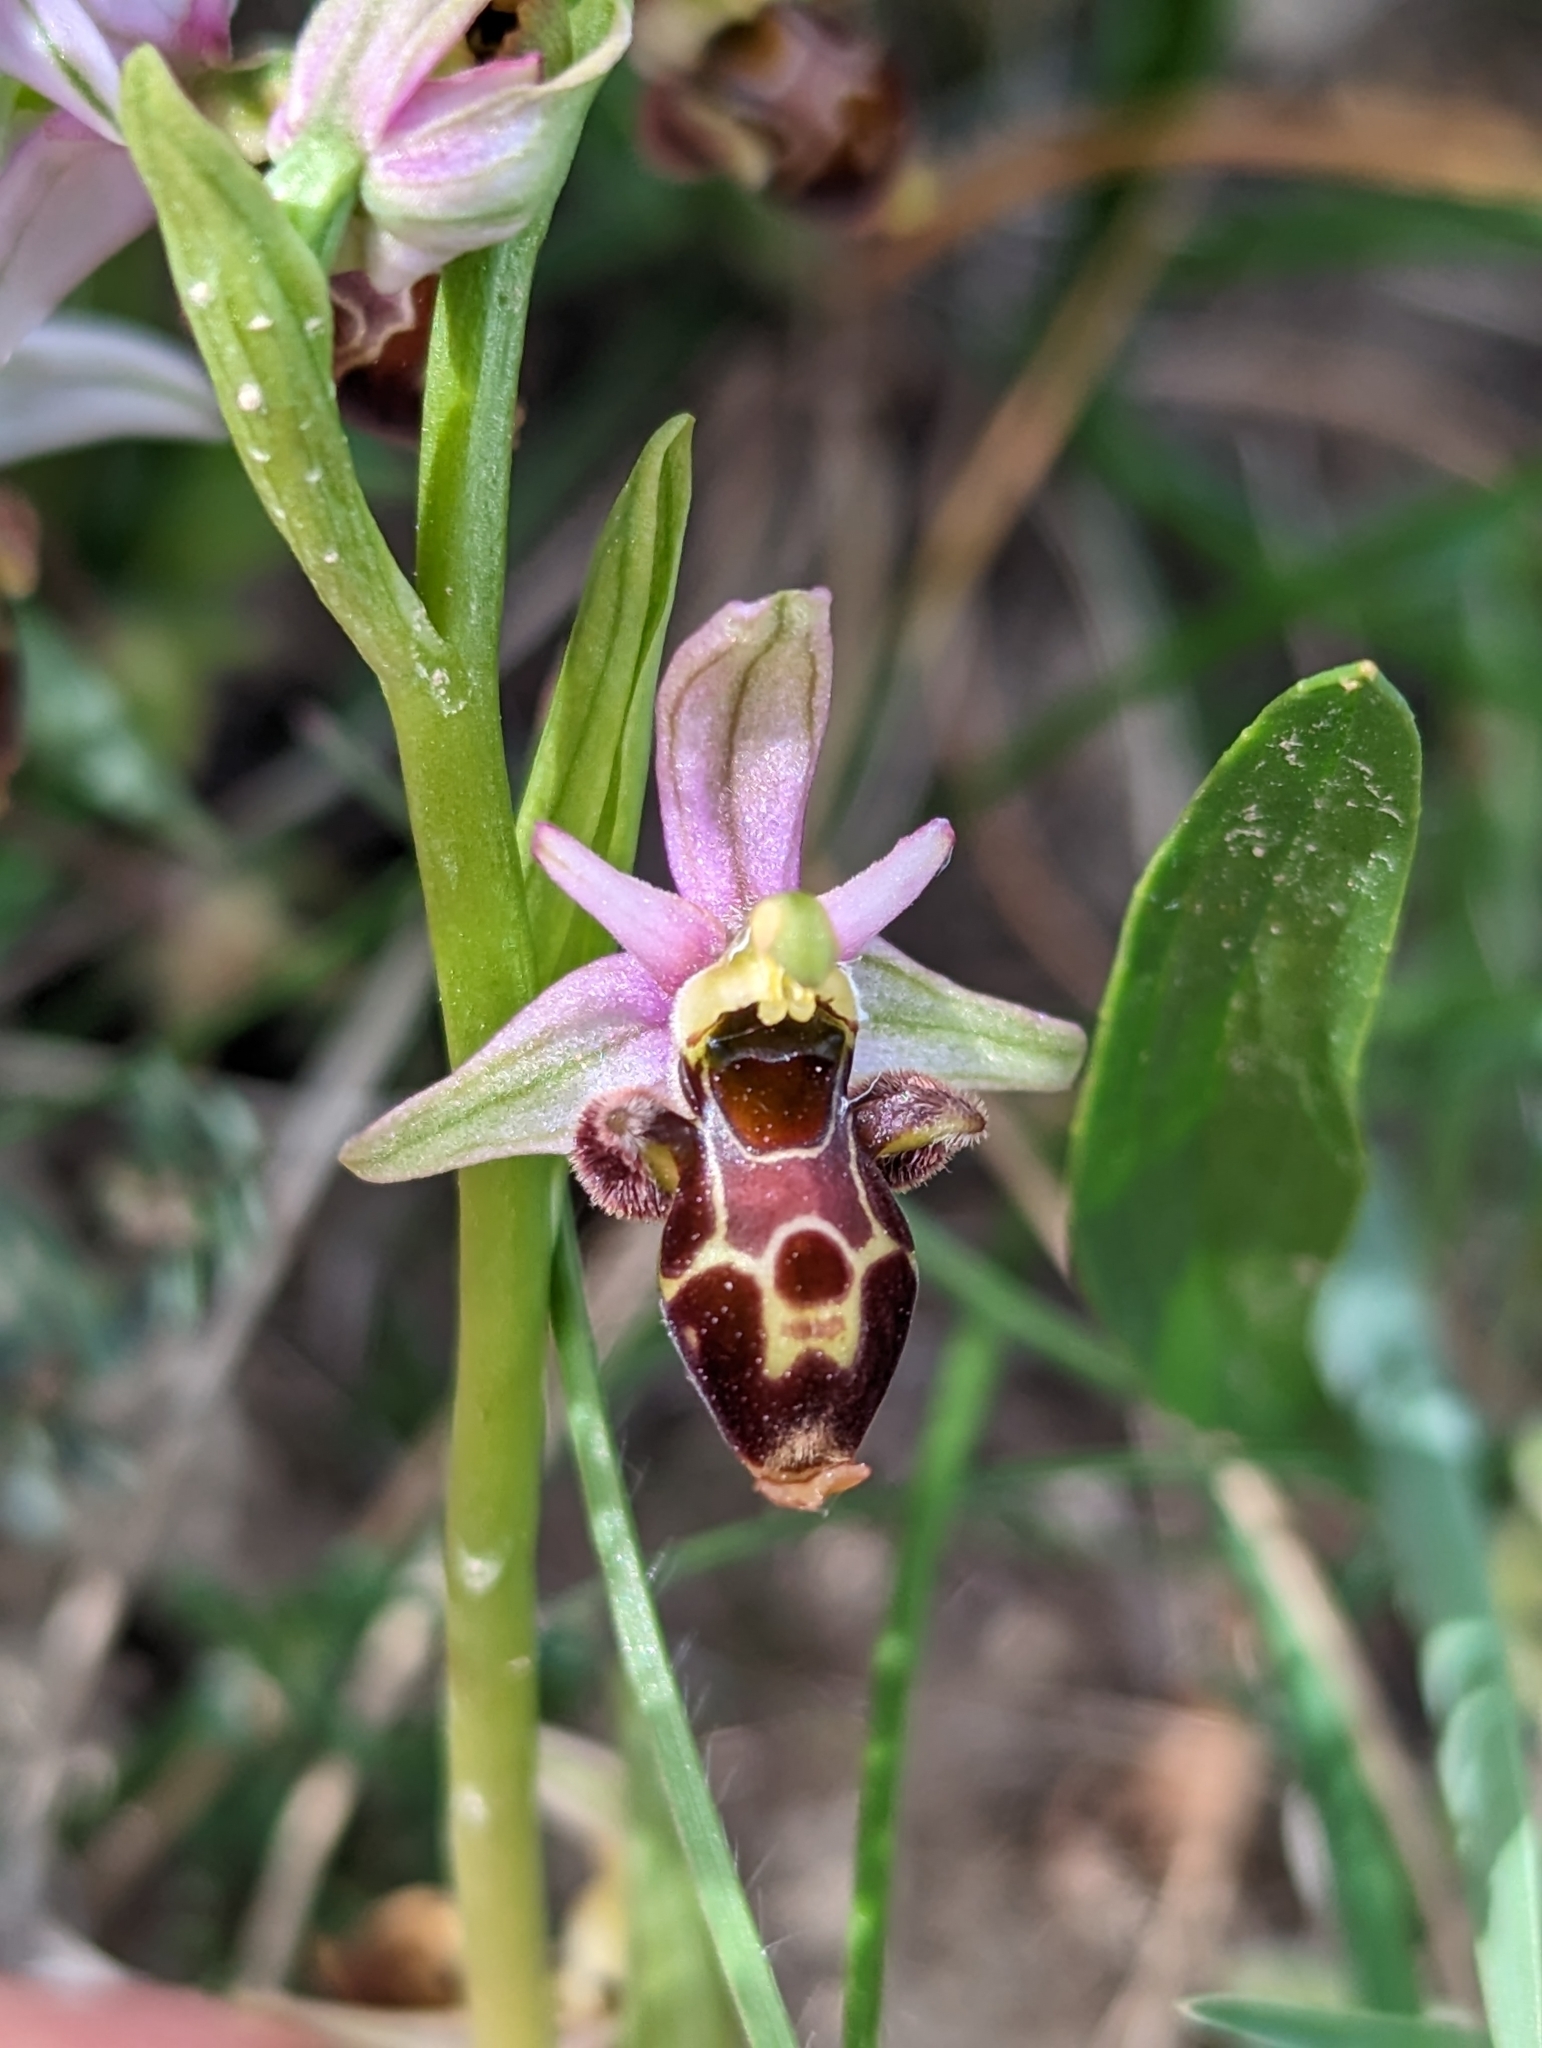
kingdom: Plantae
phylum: Tracheophyta
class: Liliopsida
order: Asparagales
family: Orchidaceae
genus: Ophrys
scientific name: Ophrys scolopax
